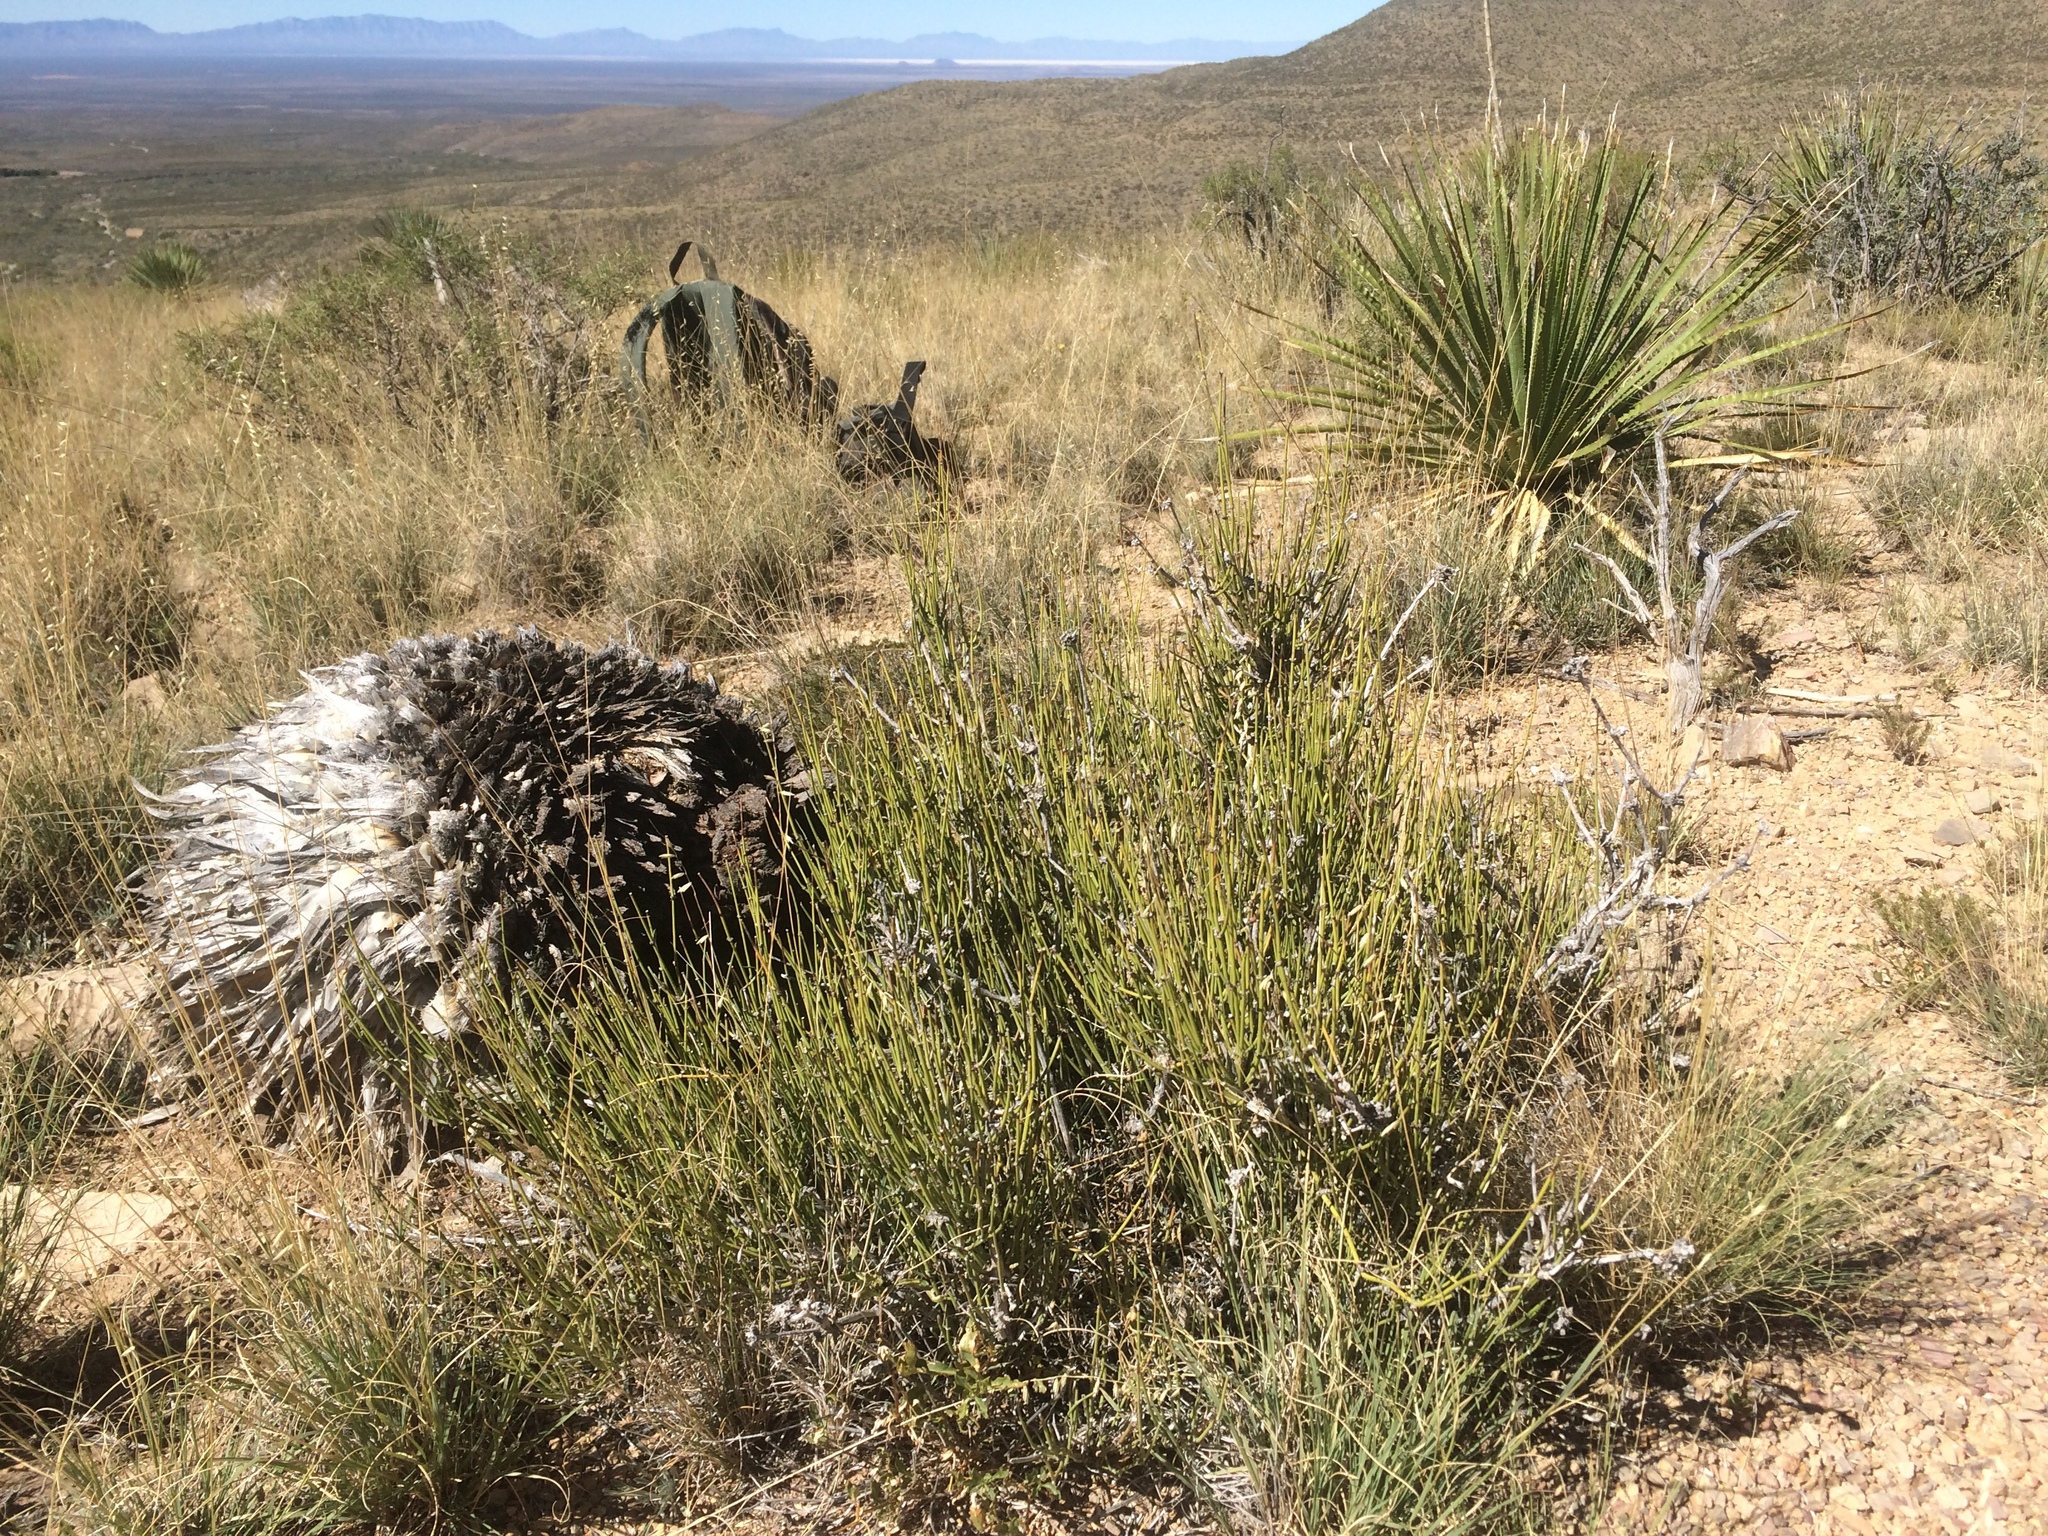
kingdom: Plantae
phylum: Tracheophyta
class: Gnetopsida
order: Ephedrales
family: Ephedraceae
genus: Ephedra
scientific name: Ephedra aspera
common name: Boundary ephedra
